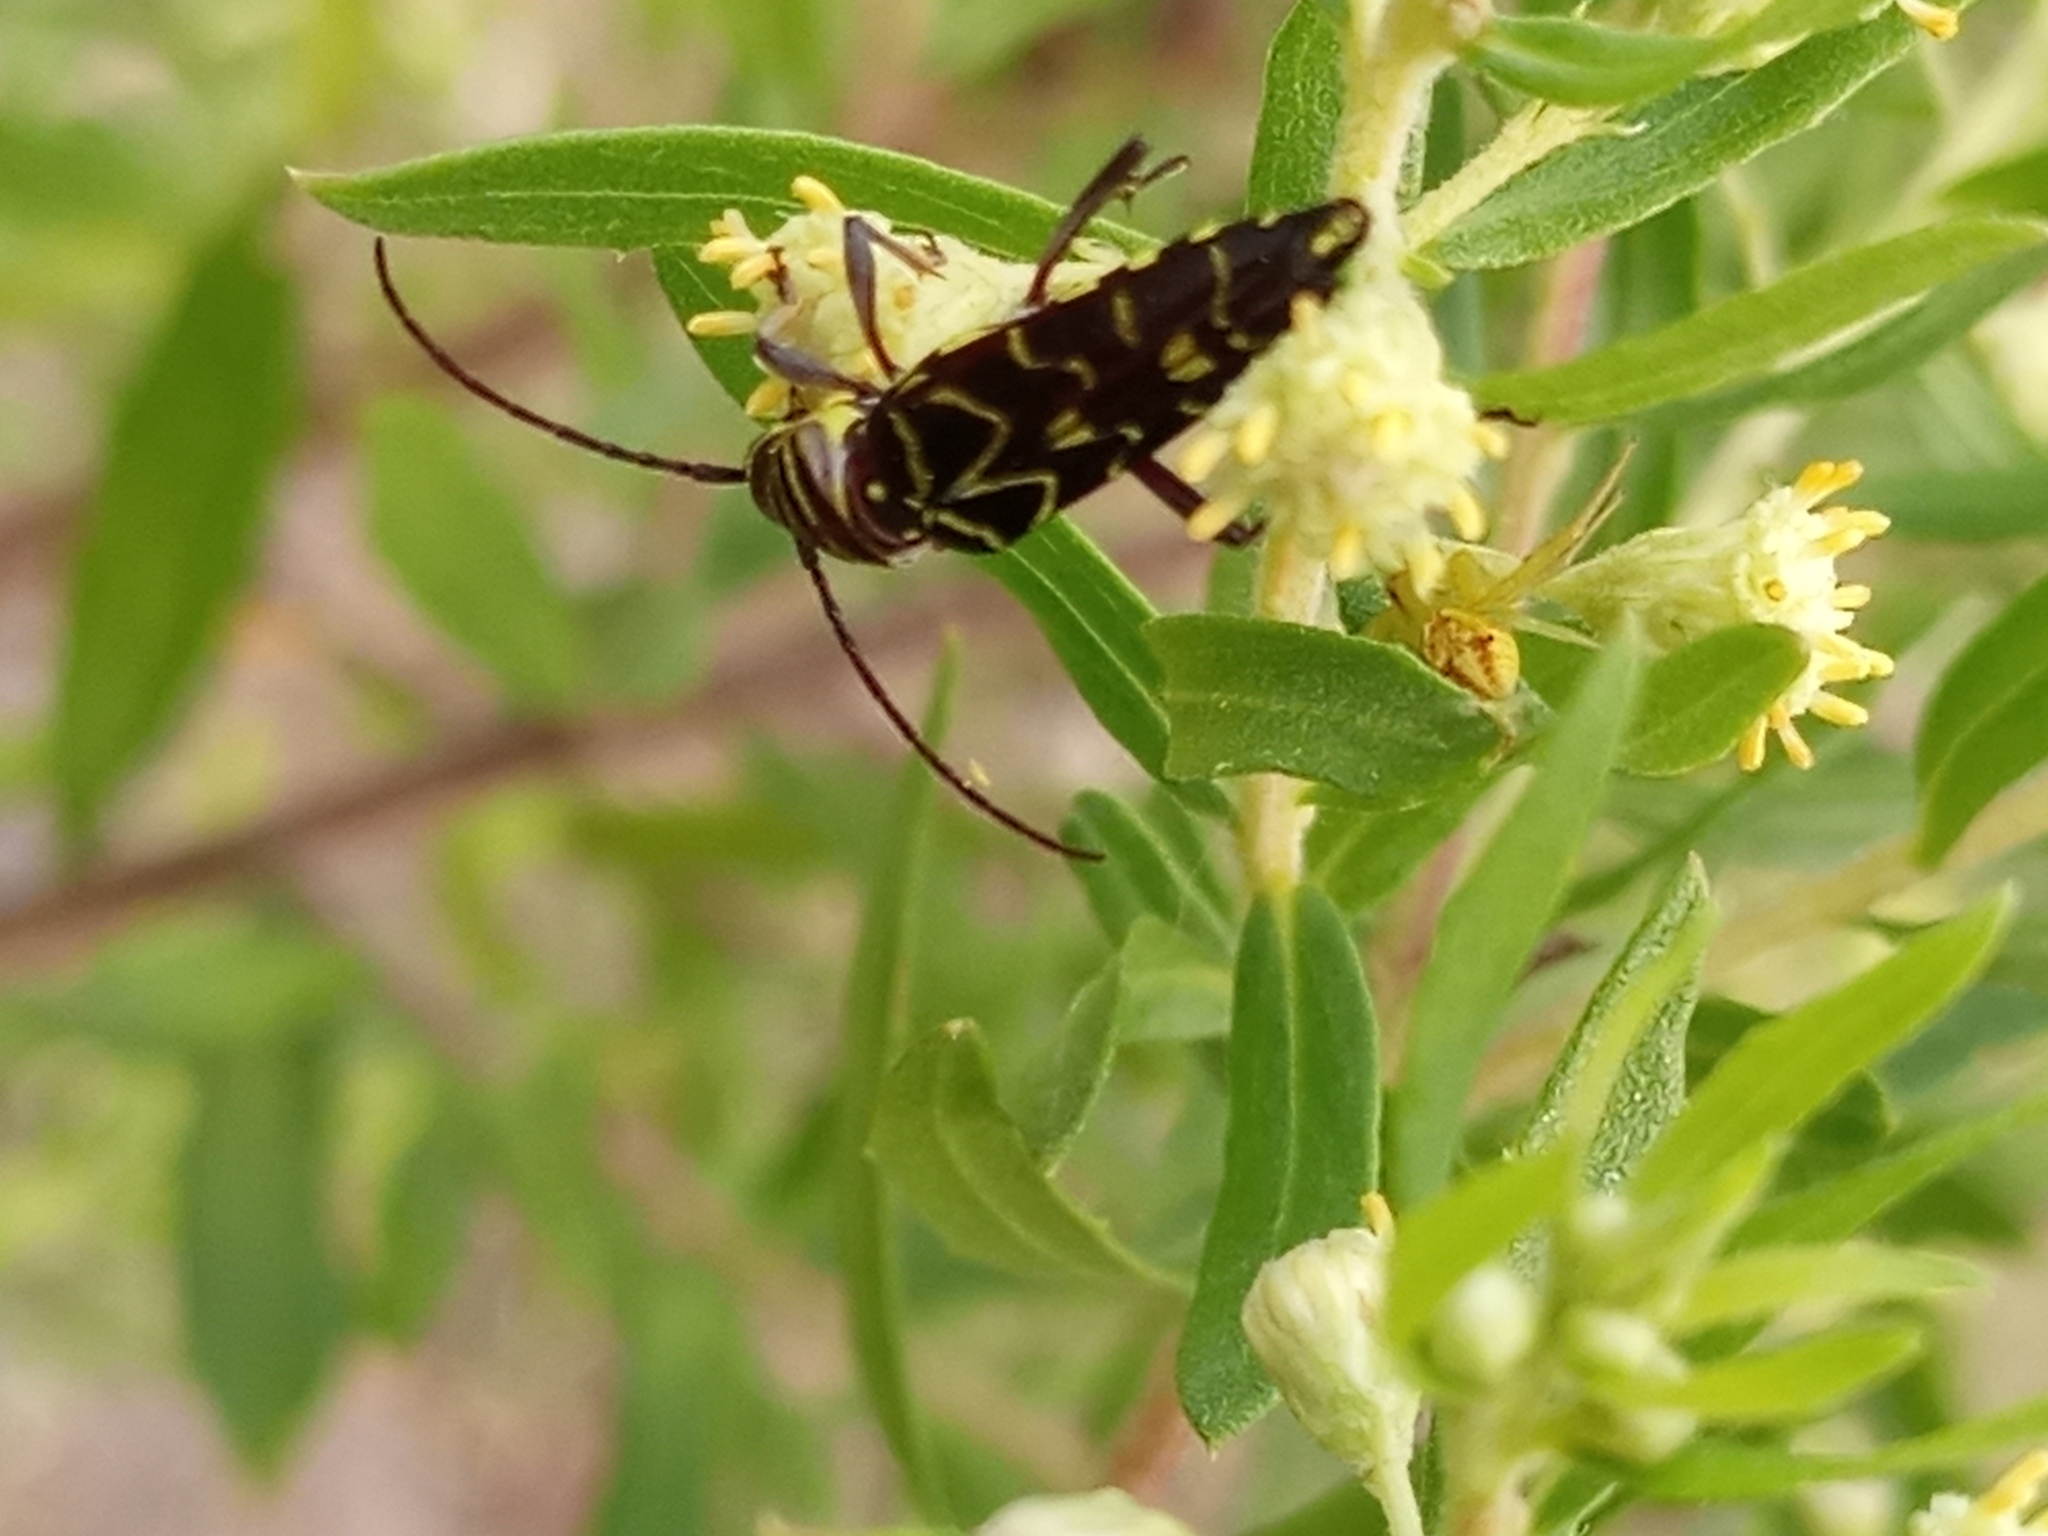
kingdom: Animalia
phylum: Arthropoda
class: Insecta
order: Coleoptera
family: Cerambycidae
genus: Megacyllene
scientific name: Megacyllene acuta
